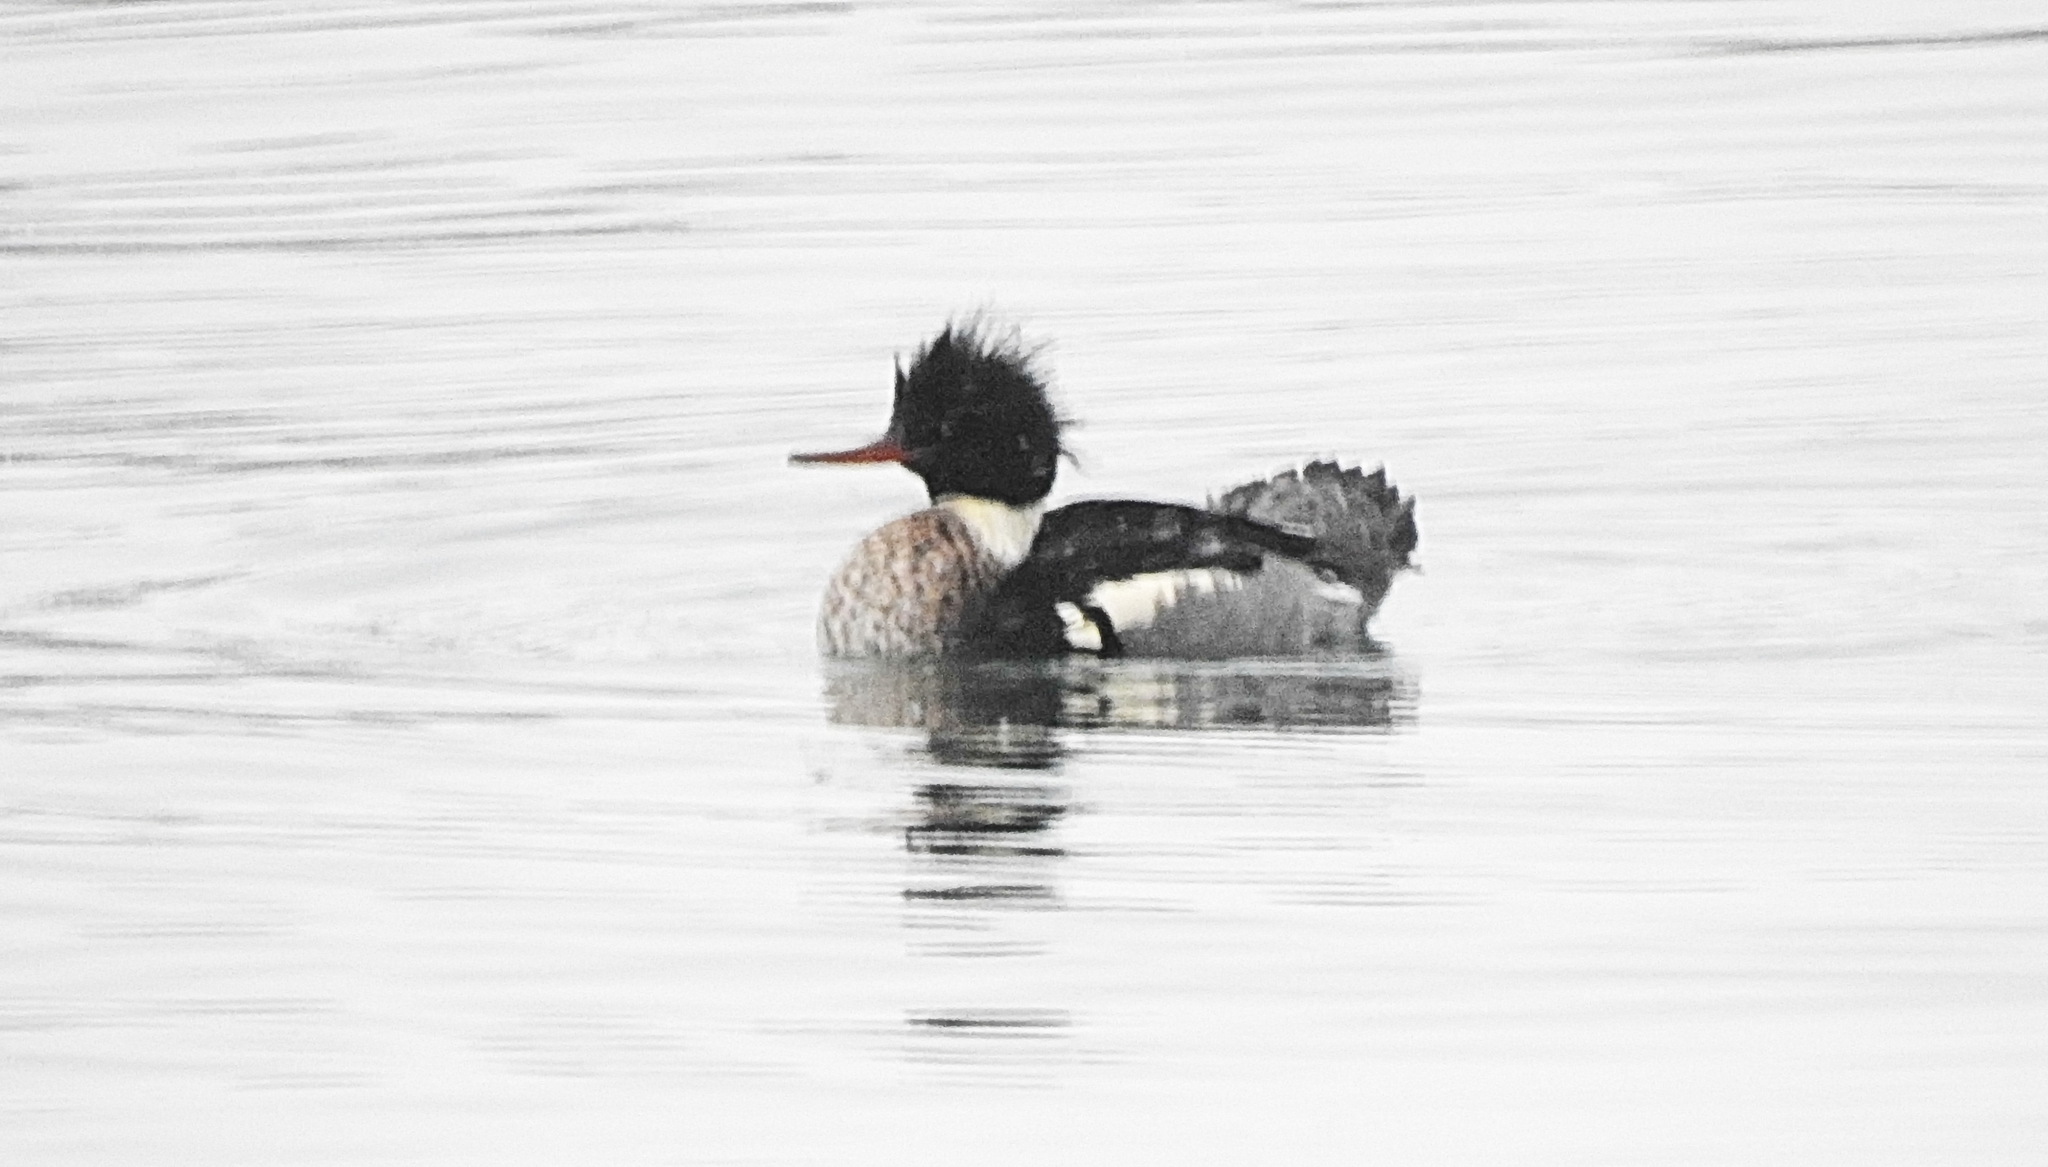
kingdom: Animalia
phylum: Chordata
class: Aves
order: Anseriformes
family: Anatidae
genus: Mergus
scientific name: Mergus serrator
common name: Red-breasted merganser
